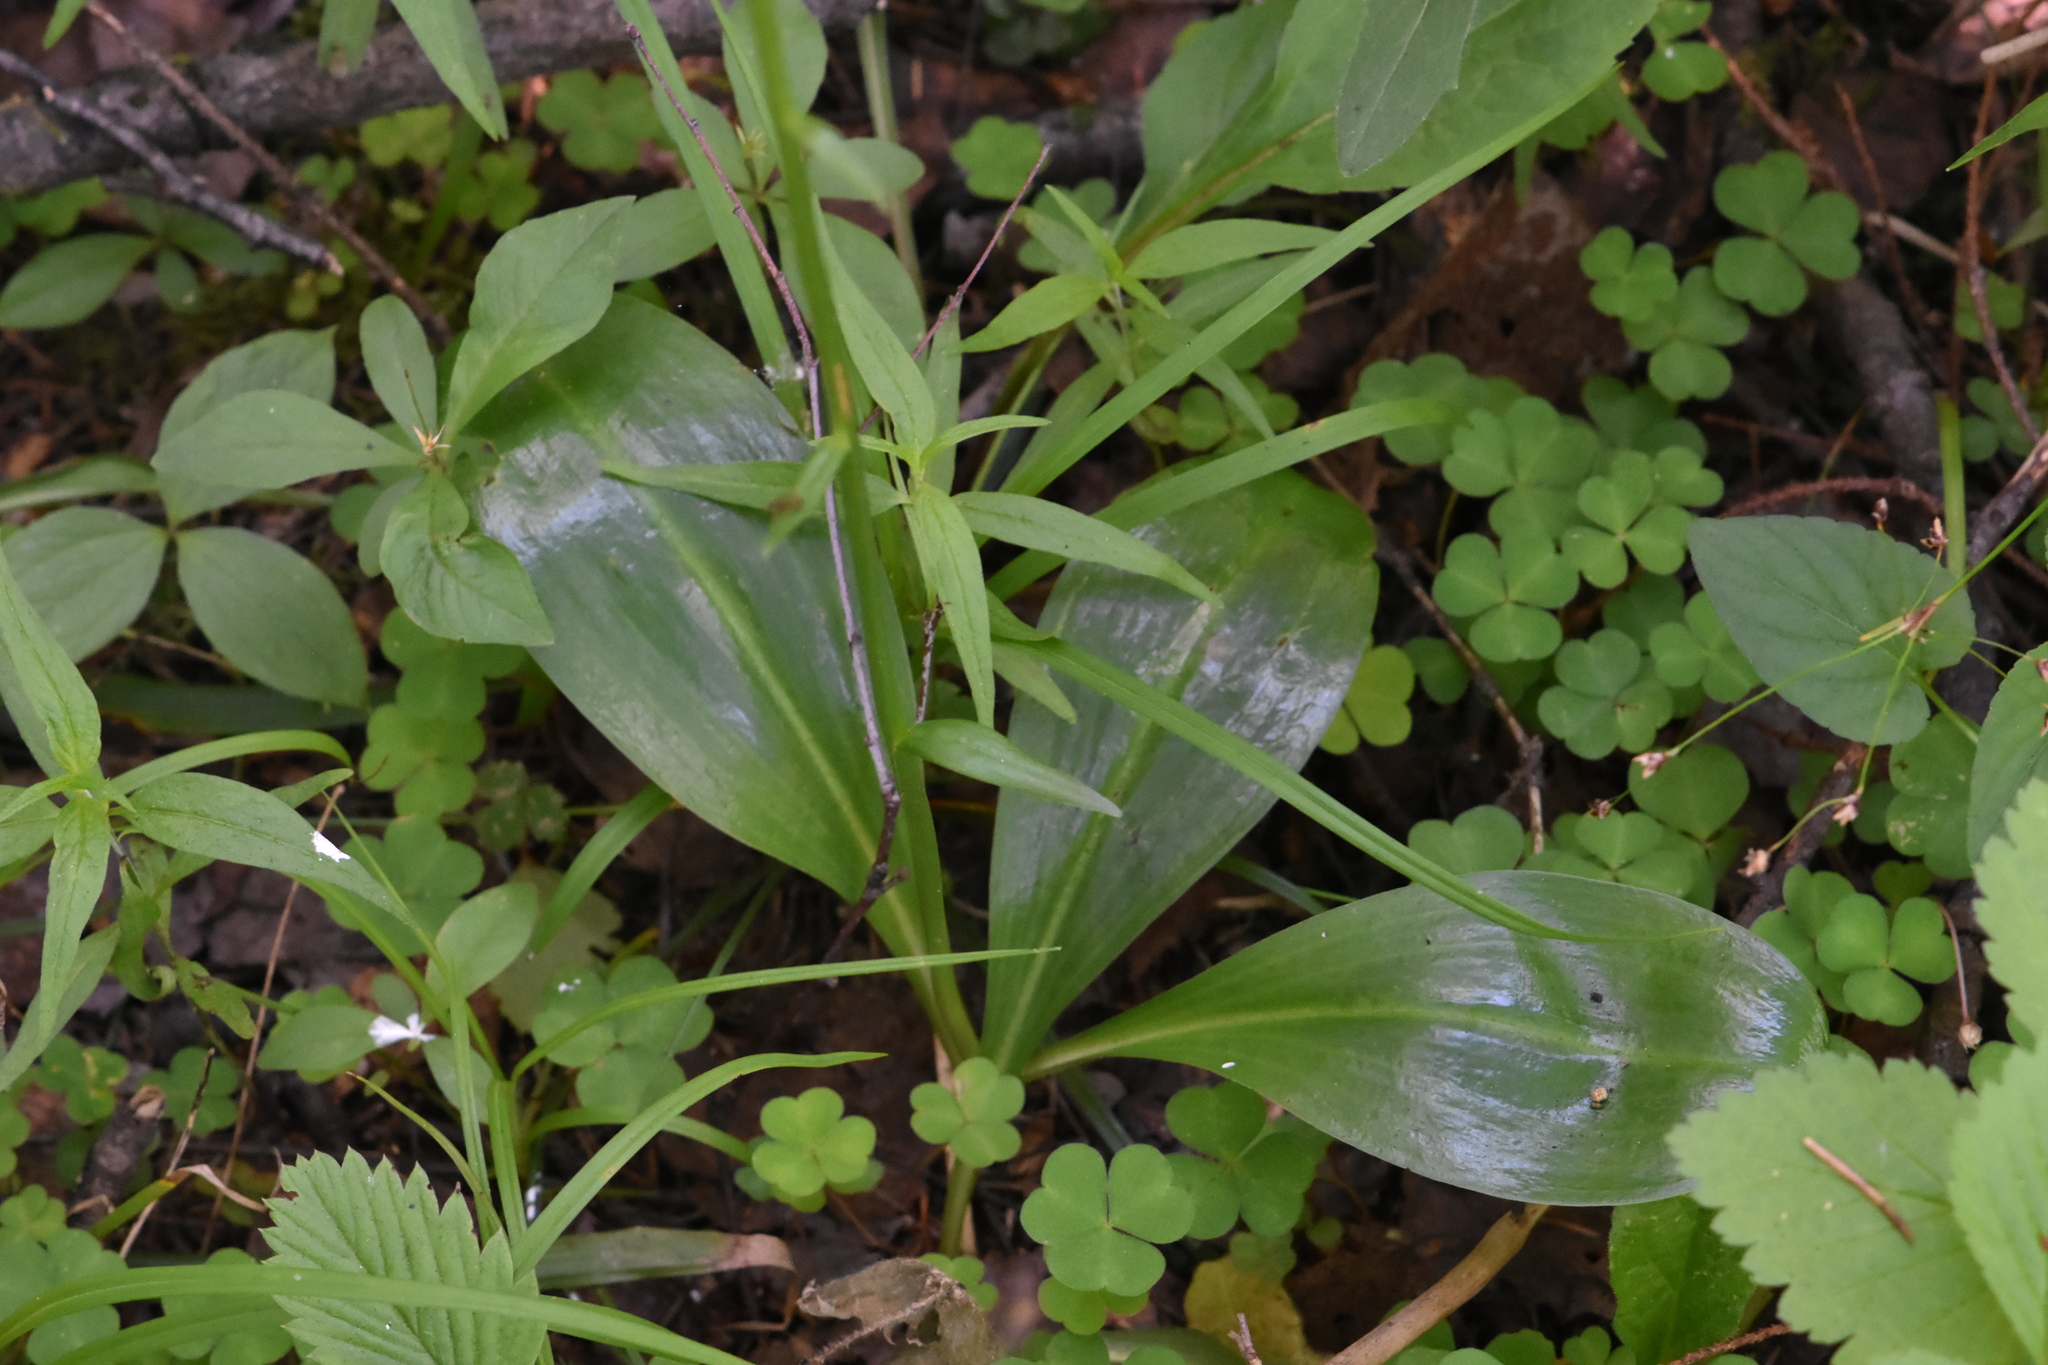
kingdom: Plantae
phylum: Tracheophyta
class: Liliopsida
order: Asparagales
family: Orchidaceae
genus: Platanthera
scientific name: Platanthera bifolia
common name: Lesser butterfly-orchid
